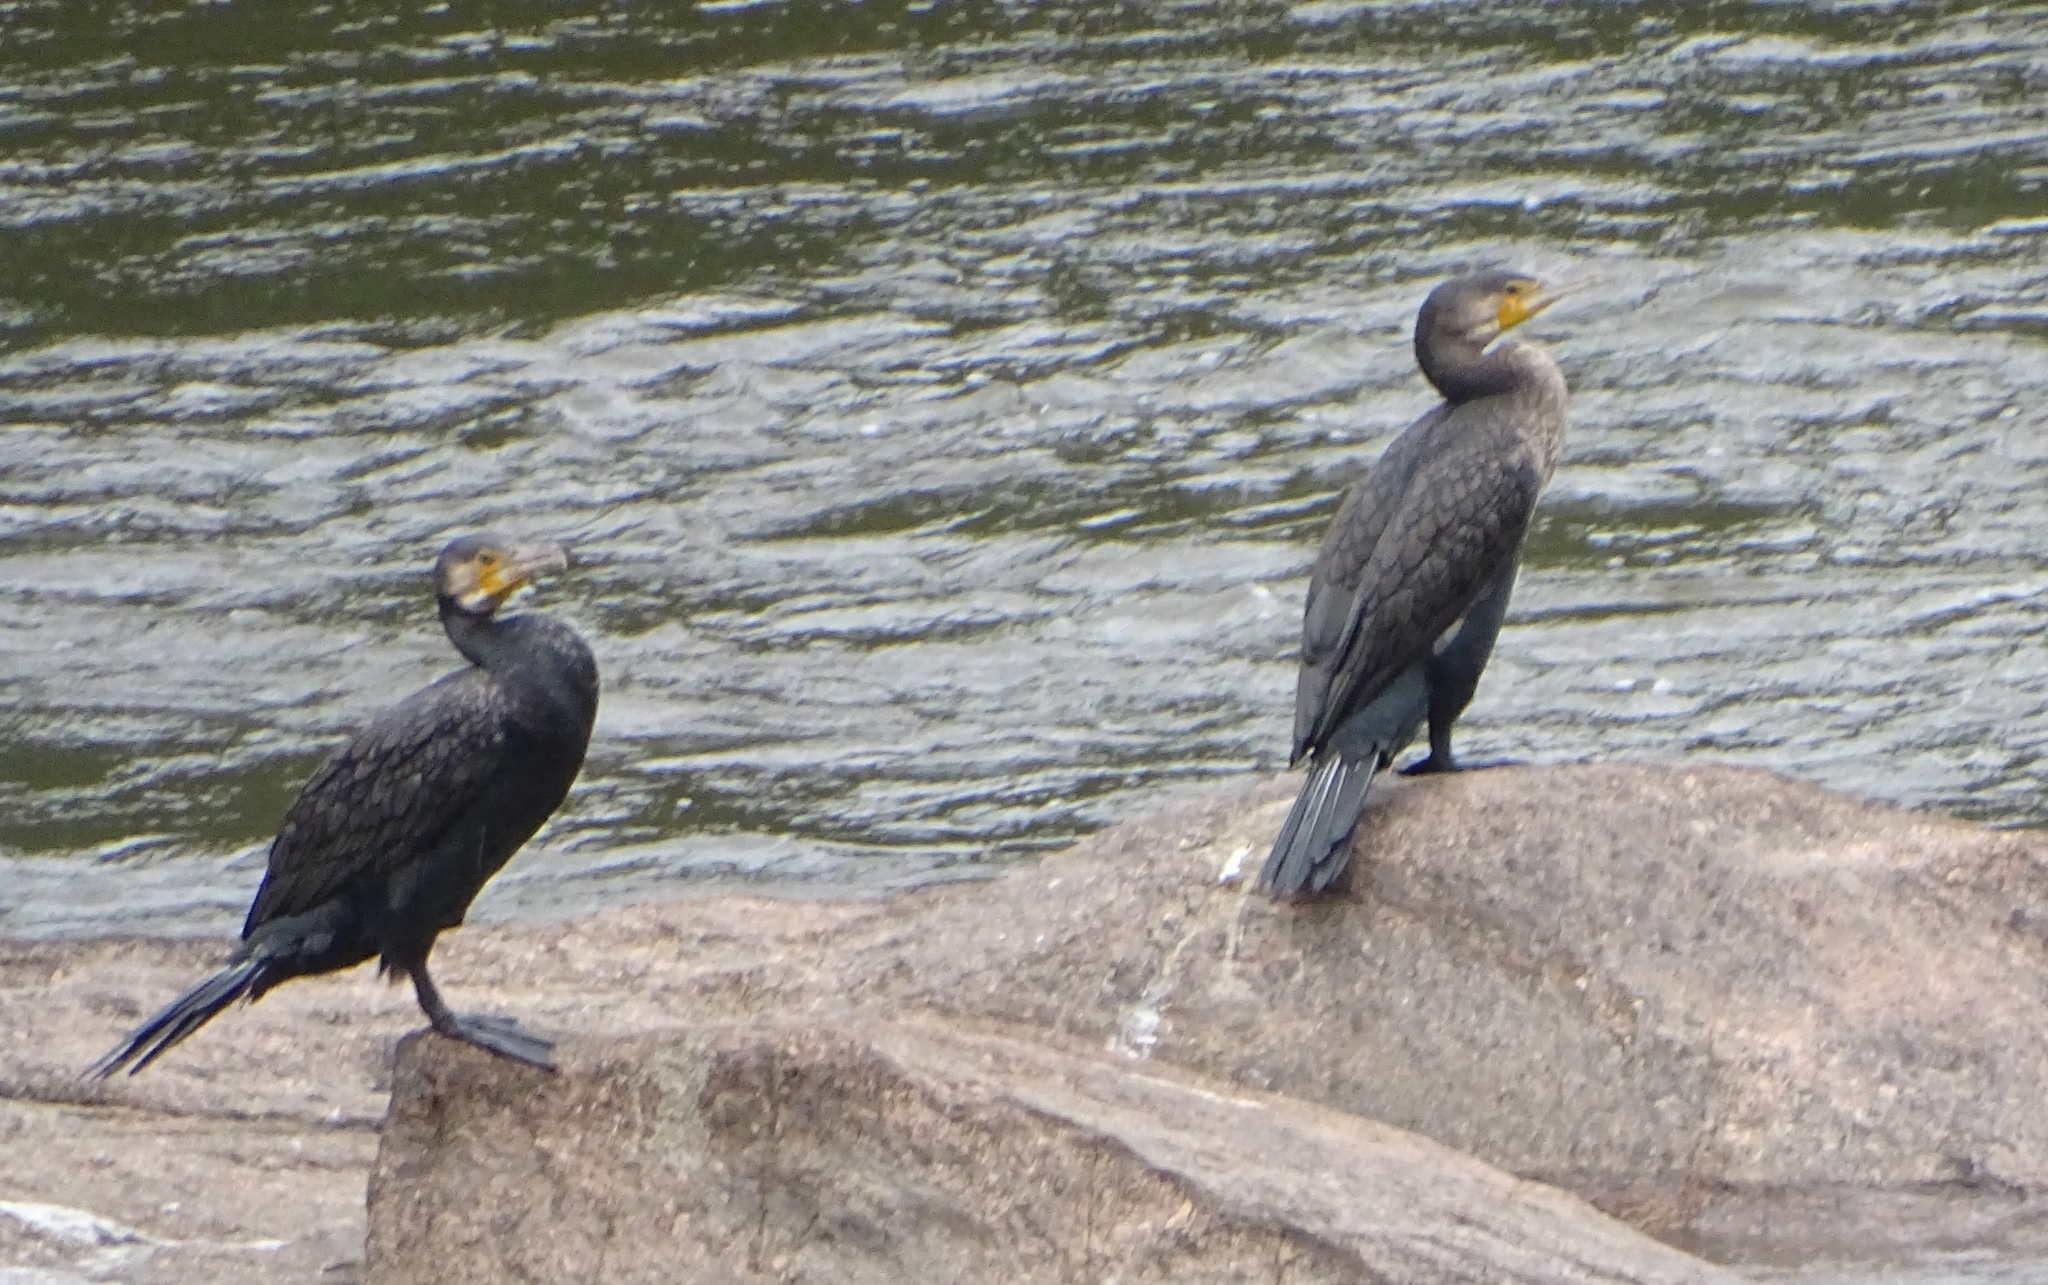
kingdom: Animalia
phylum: Chordata
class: Aves
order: Suliformes
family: Phalacrocoracidae
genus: Phalacrocorax
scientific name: Phalacrocorax carbo
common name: Great cormorant
